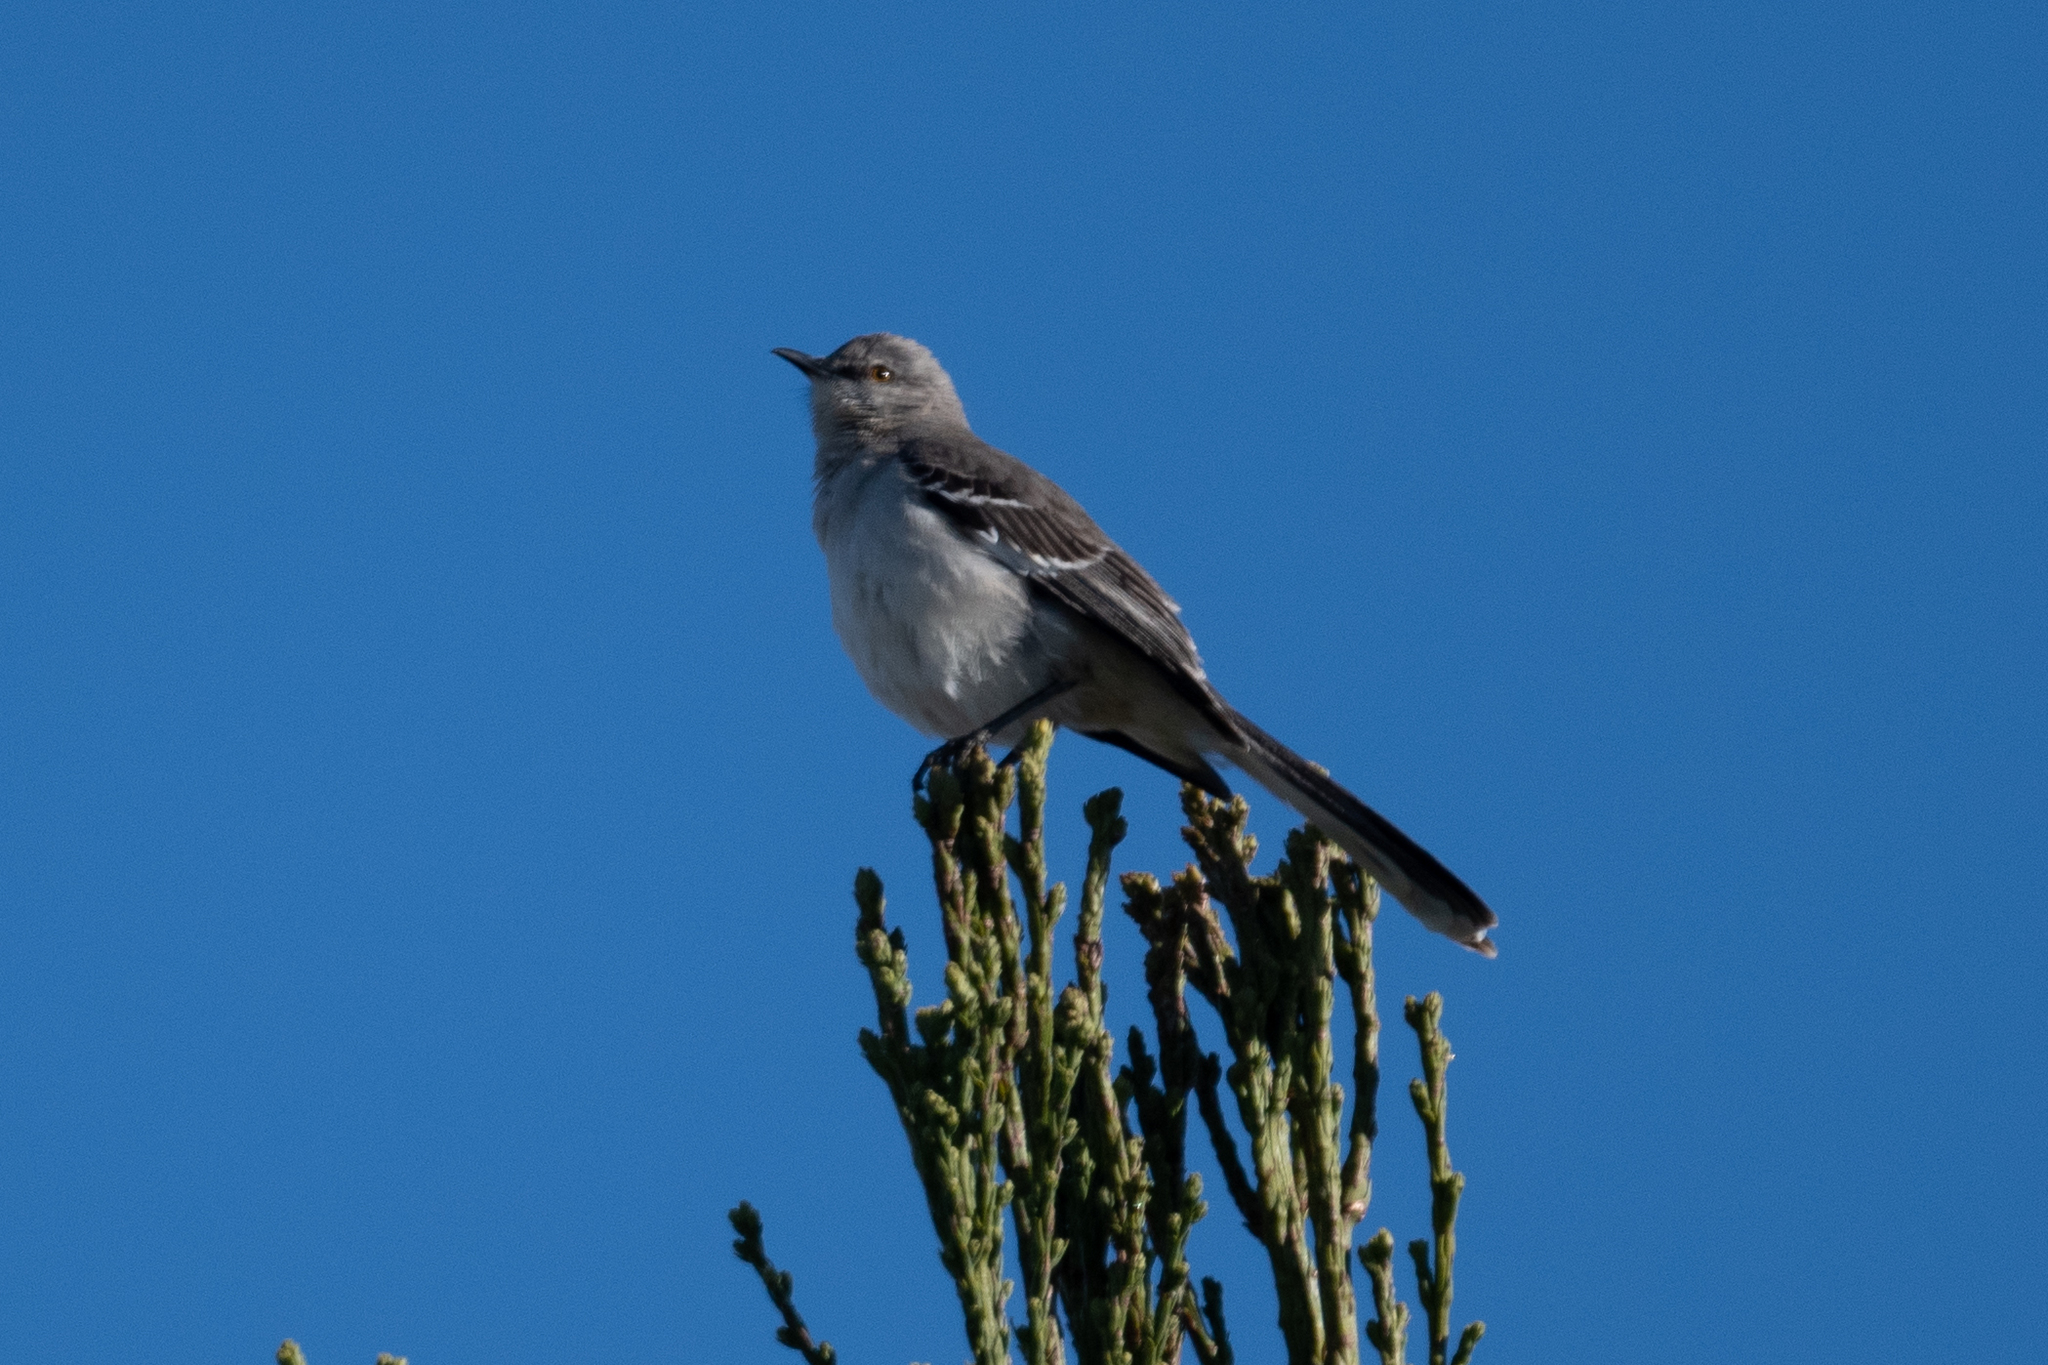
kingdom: Animalia
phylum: Chordata
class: Aves
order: Passeriformes
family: Mimidae
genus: Mimus
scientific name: Mimus polyglottos
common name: Northern mockingbird
